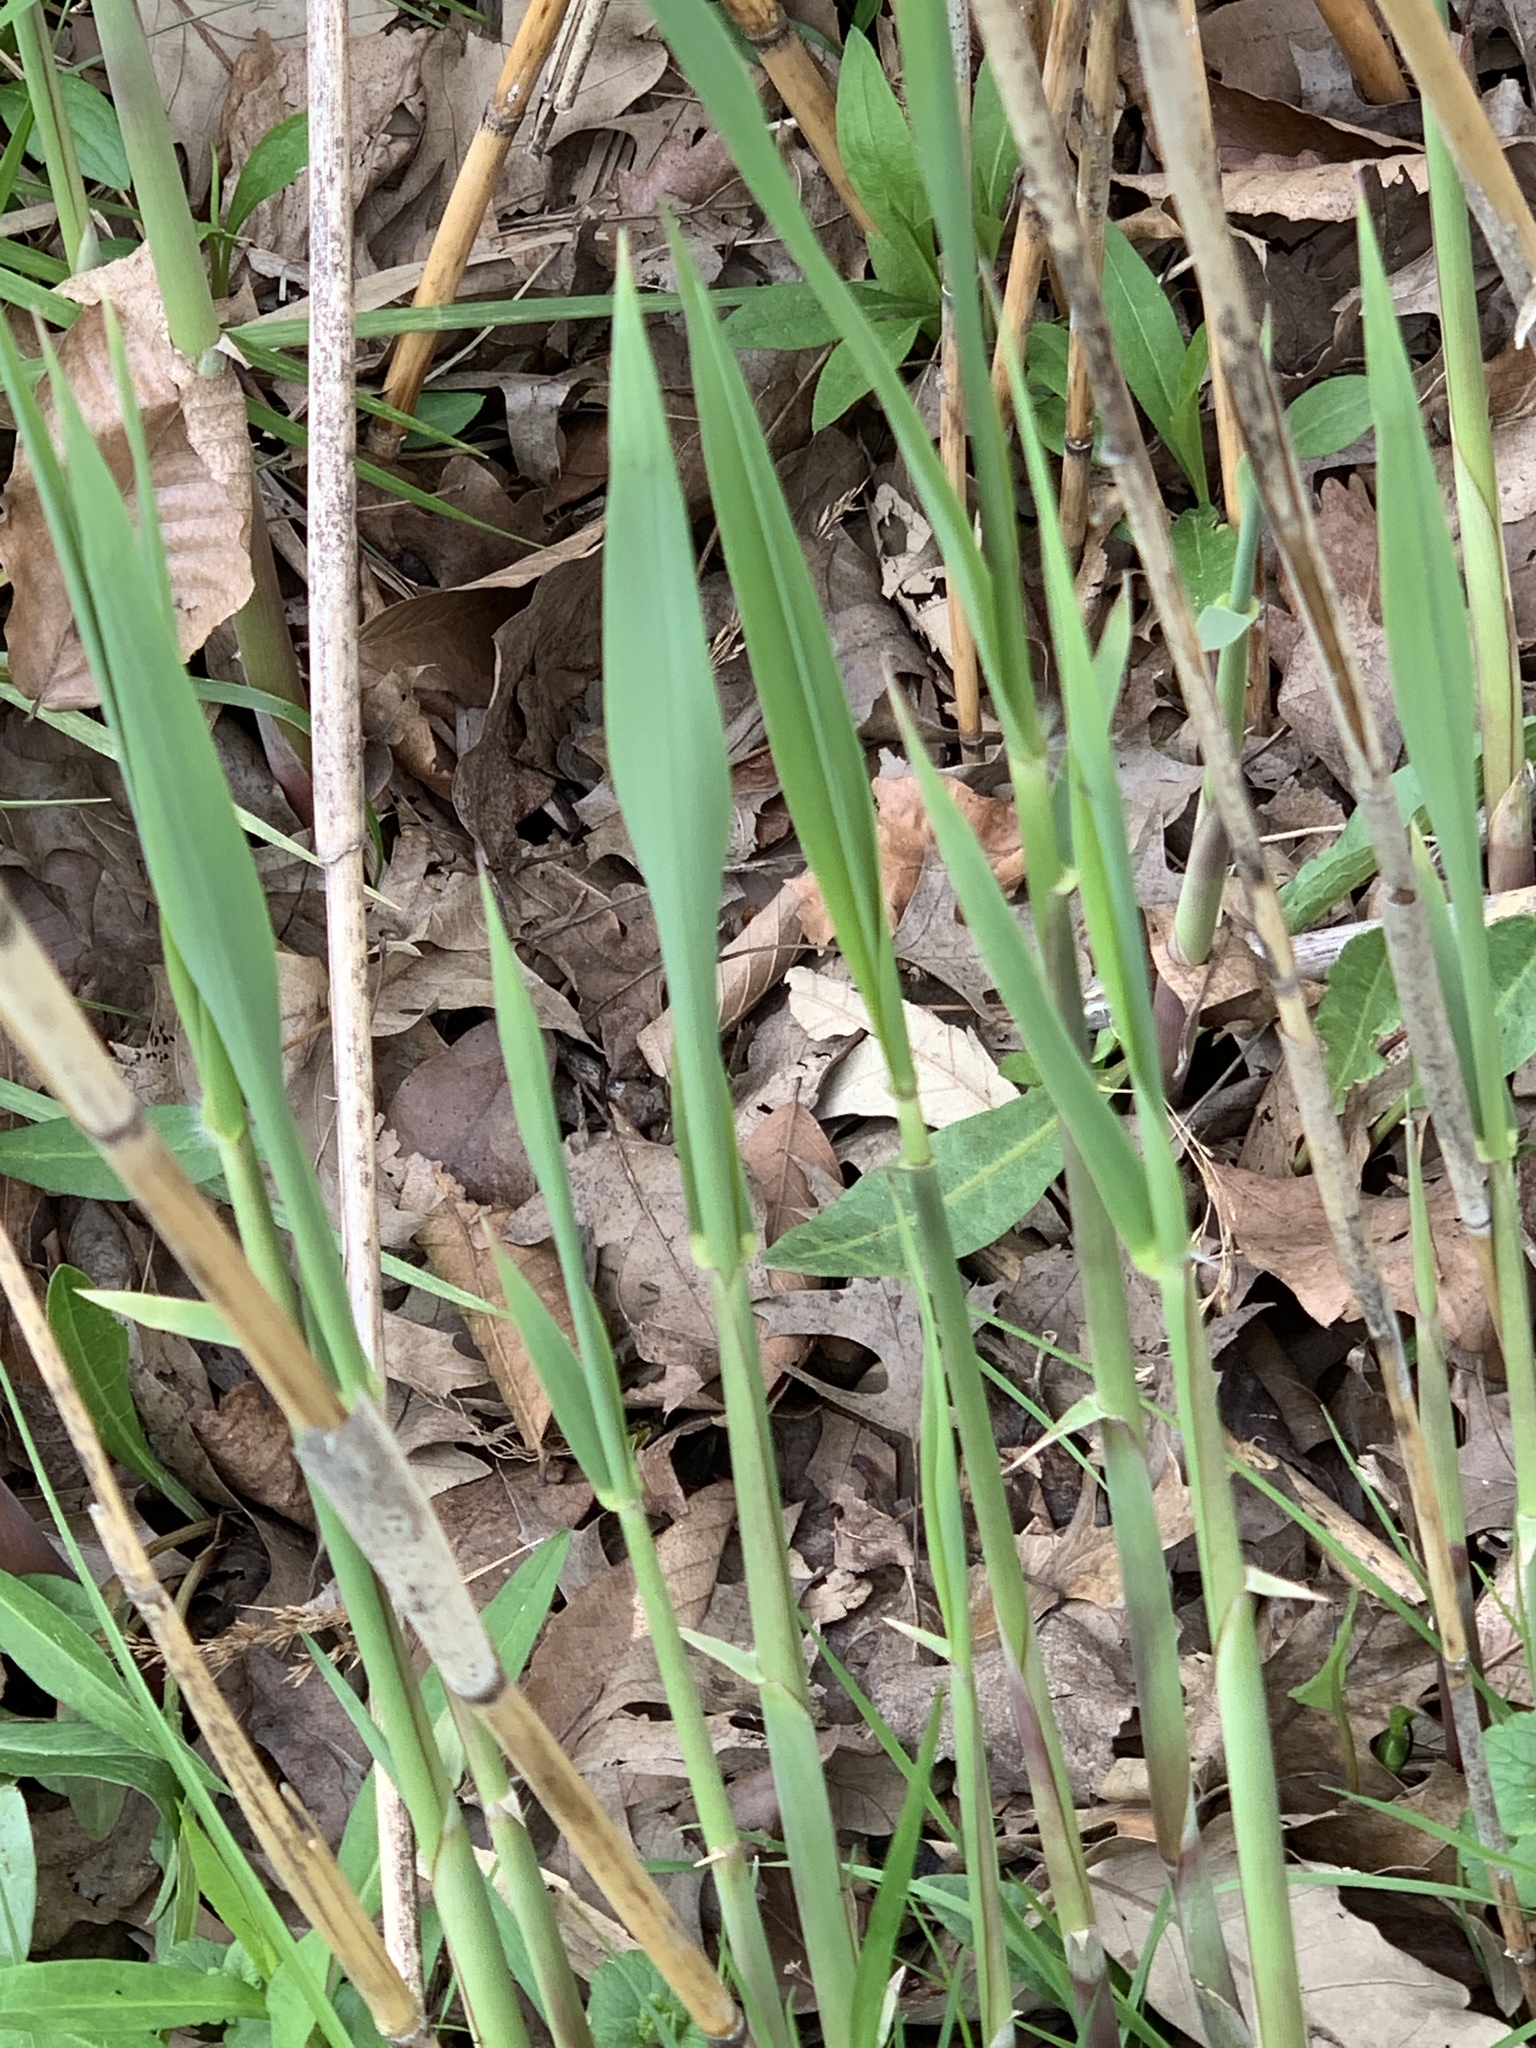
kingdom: Plantae
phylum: Tracheophyta
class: Liliopsida
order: Poales
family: Poaceae
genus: Phragmites
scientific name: Phragmites australis
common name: Common reed
